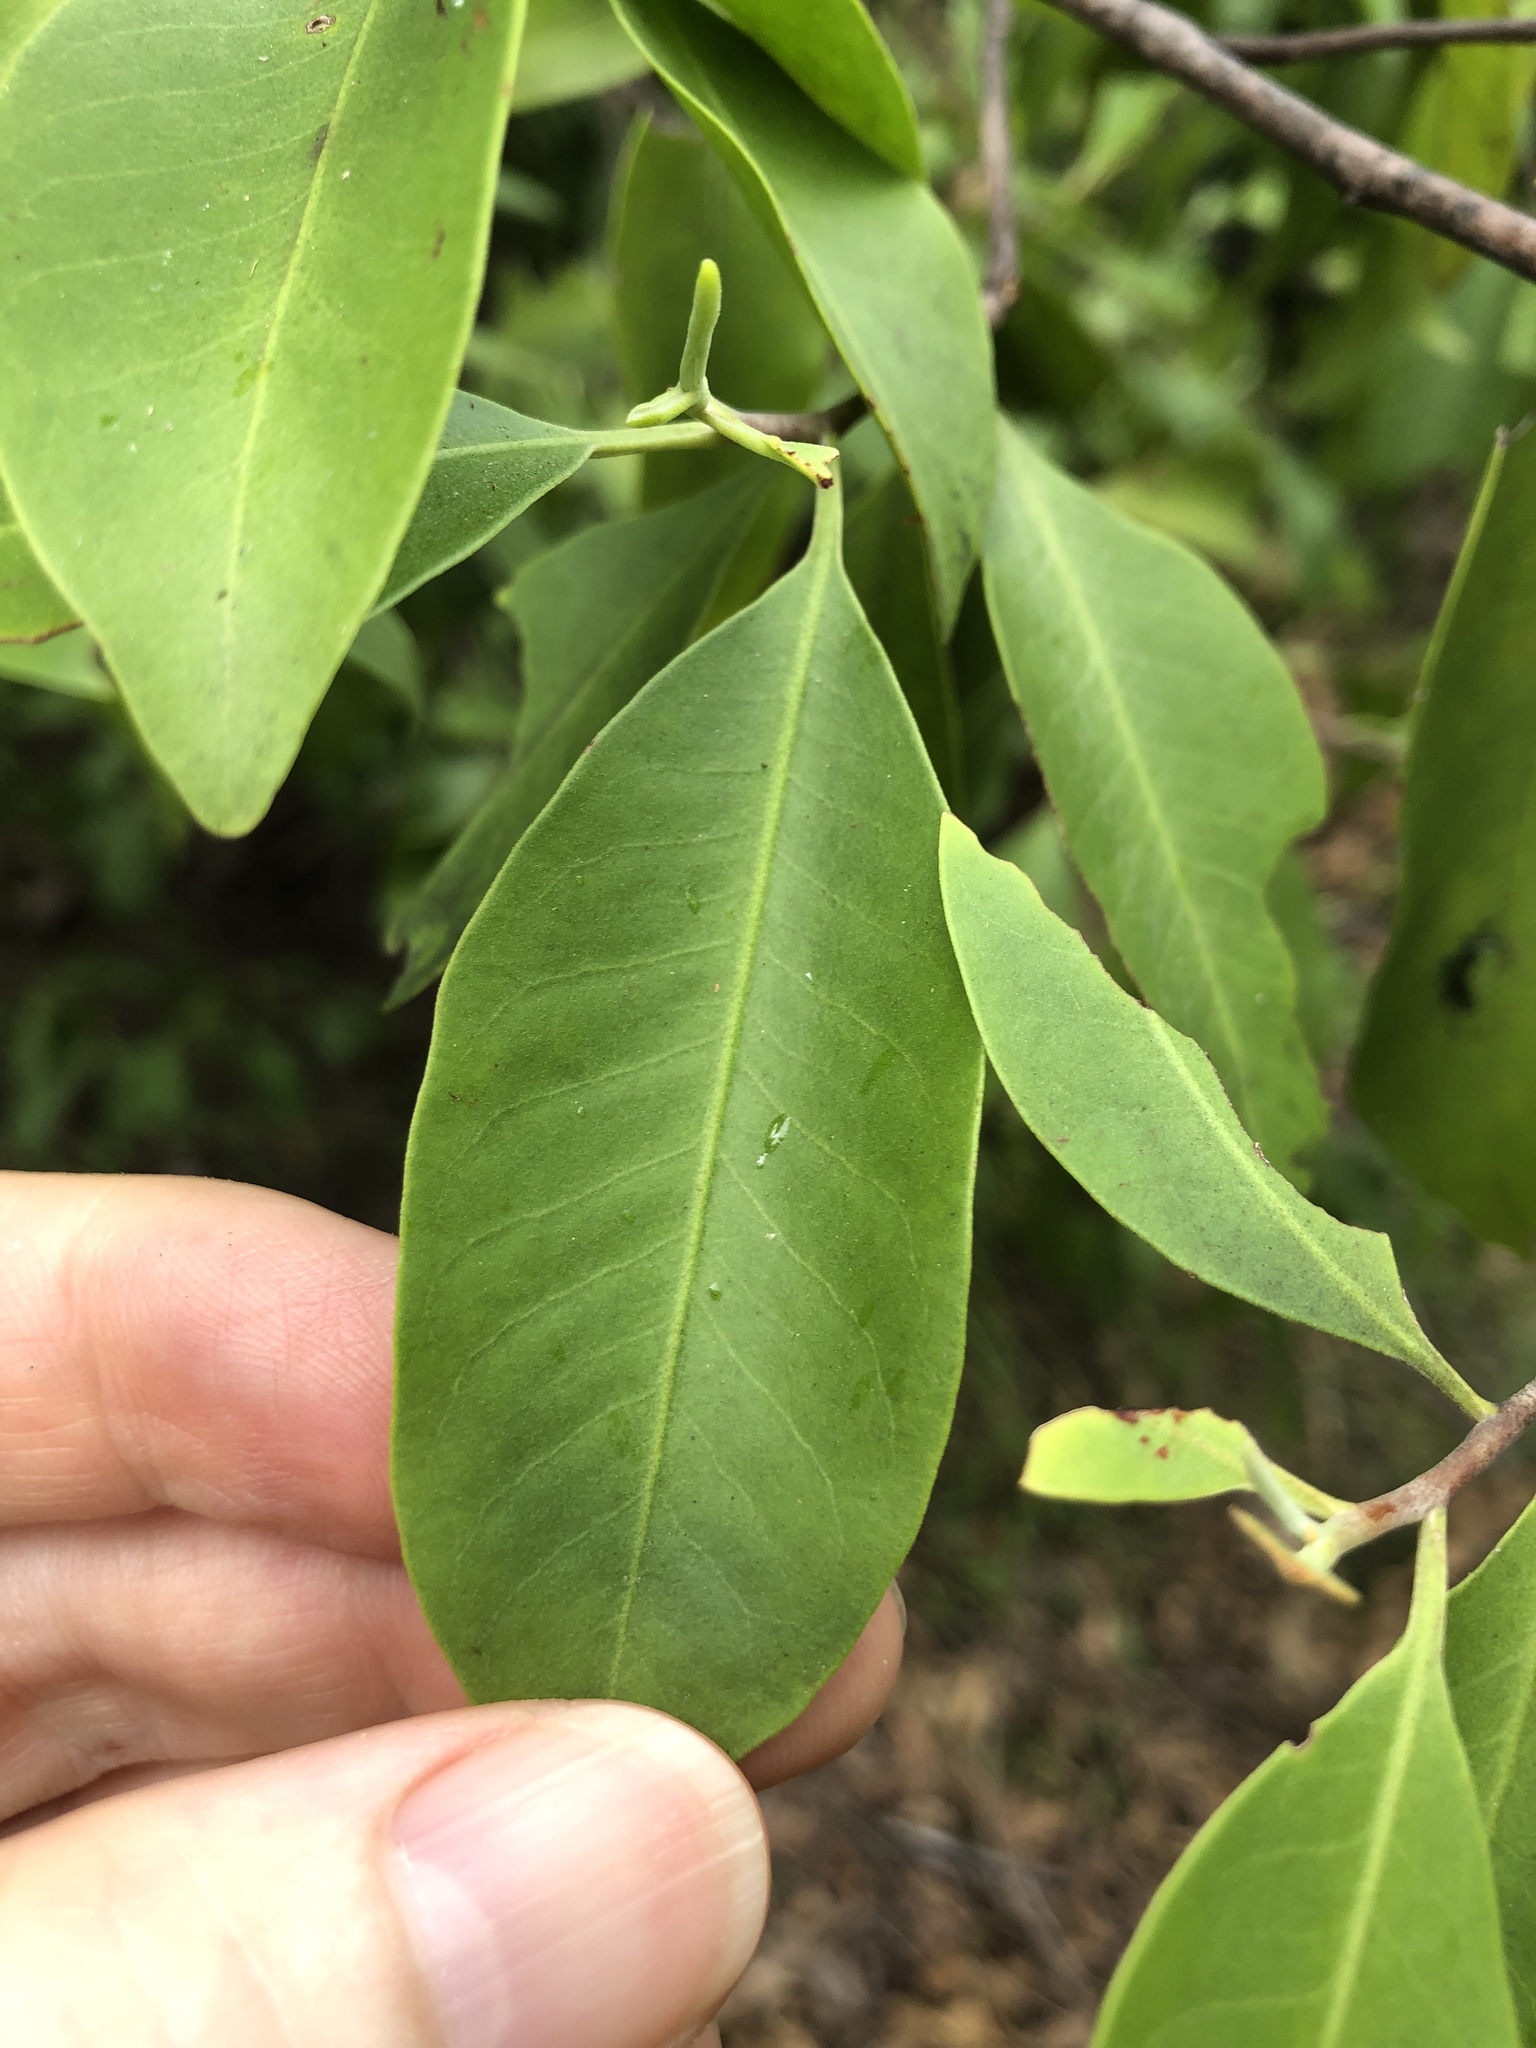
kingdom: Plantae
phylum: Tracheophyta
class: Magnoliopsida
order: Sapindales
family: Rutaceae
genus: Geijera
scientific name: Geijera salicifolia
